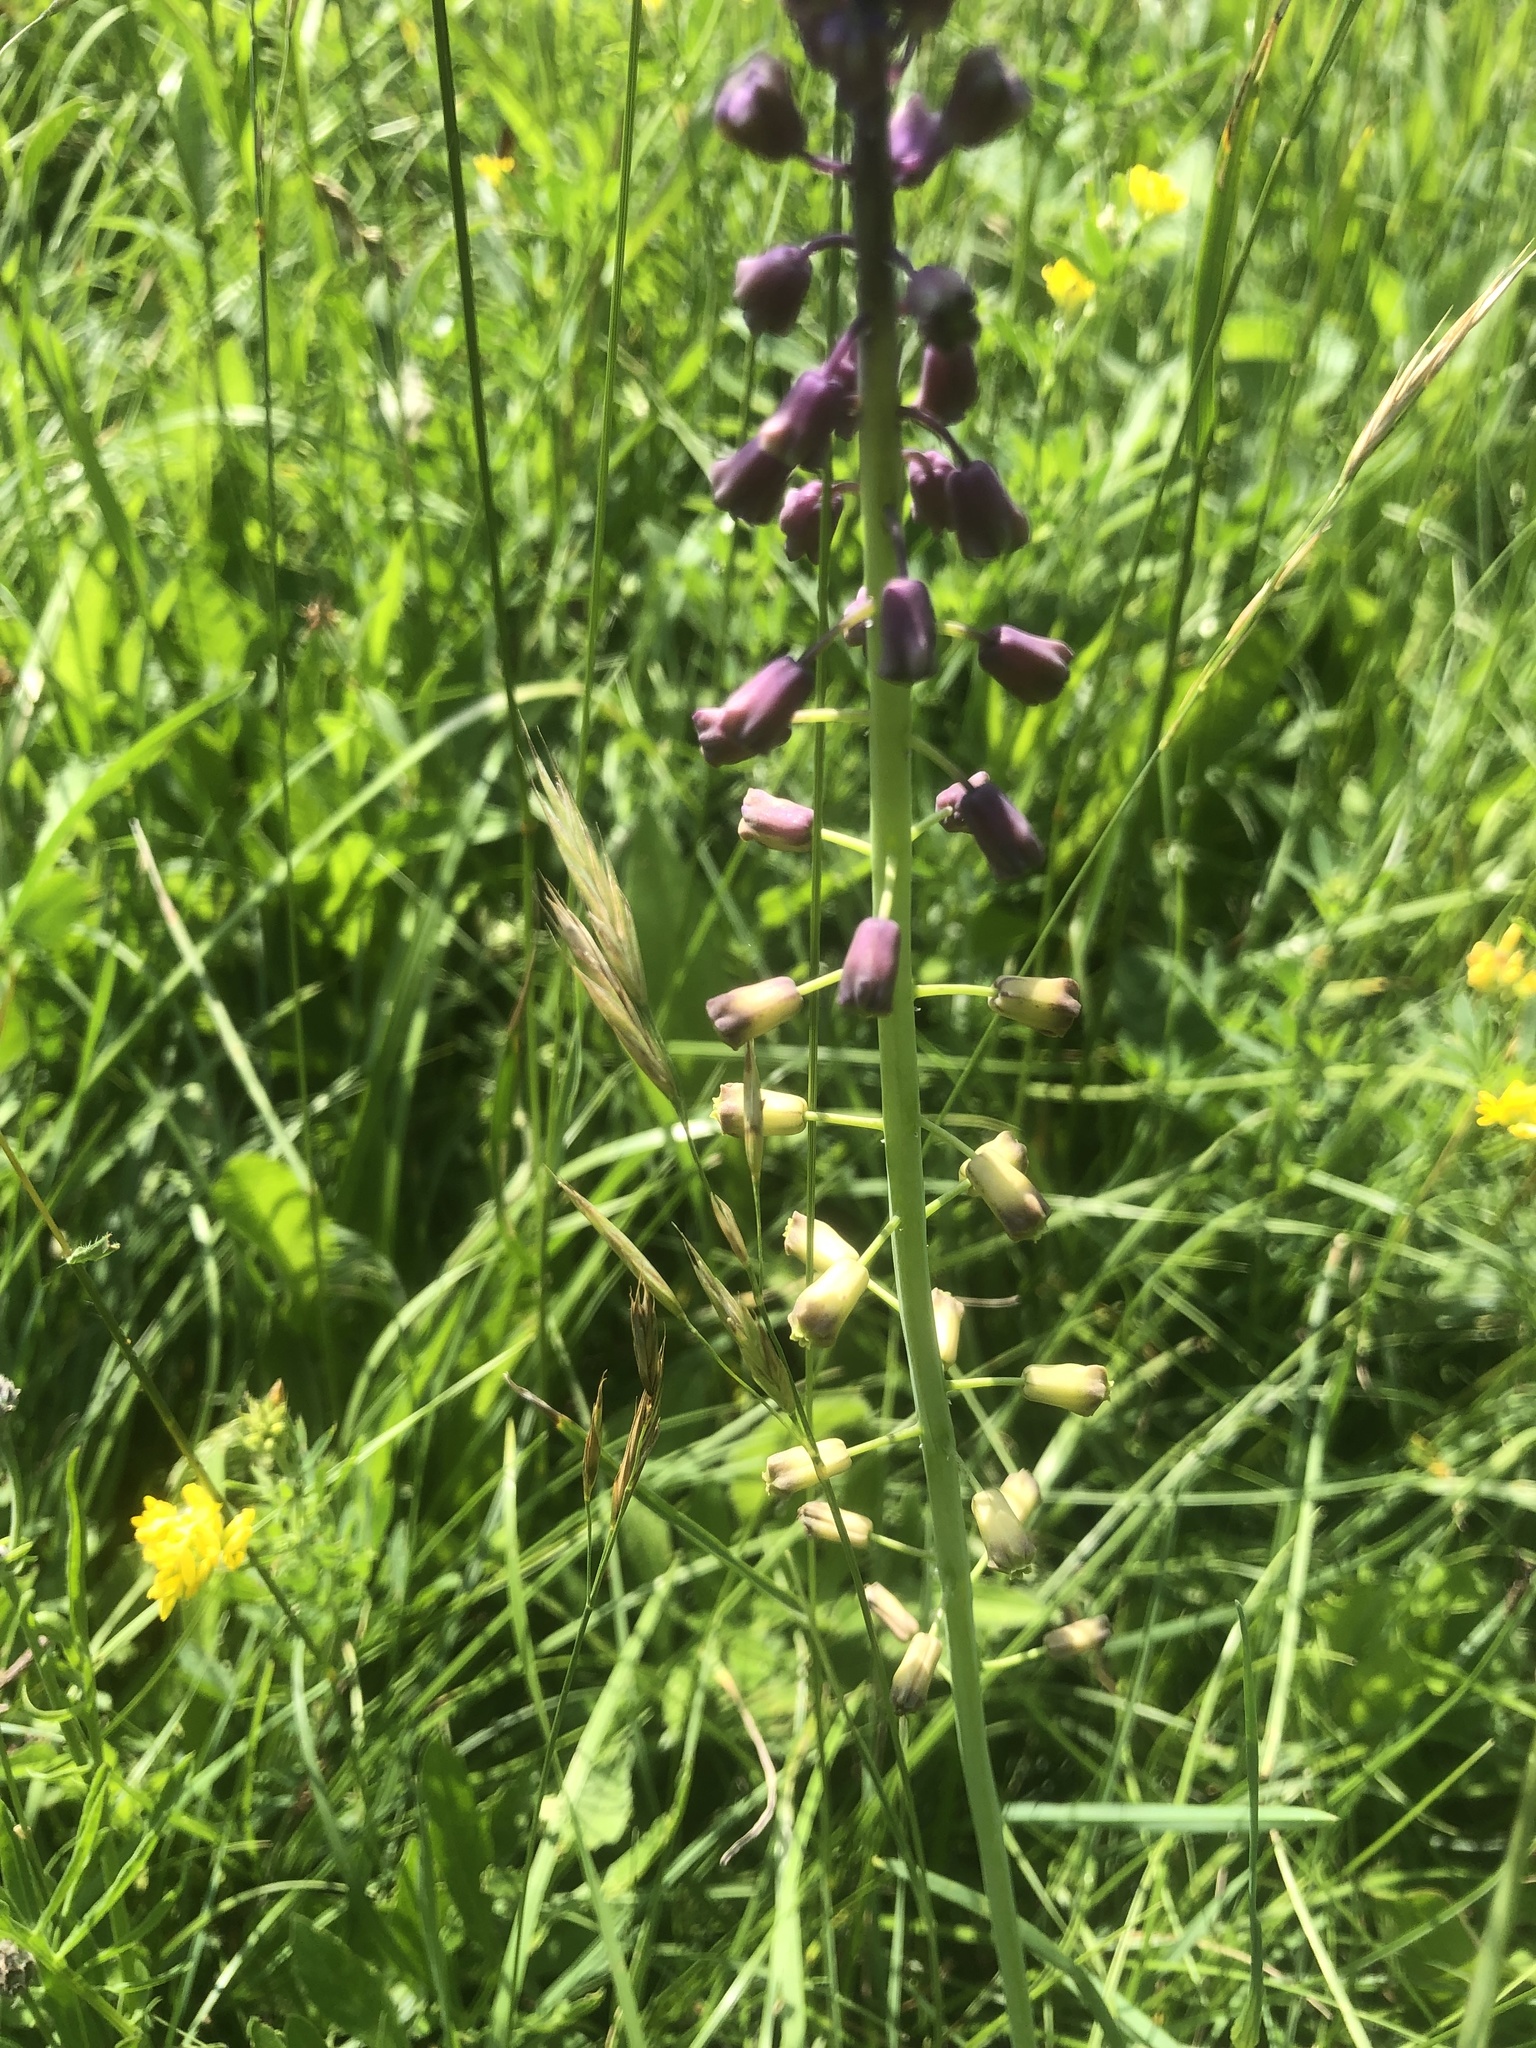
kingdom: Plantae
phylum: Tracheophyta
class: Liliopsida
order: Asparagales
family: Asparagaceae
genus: Muscari
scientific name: Muscari comosum
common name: Tassel hyacinth
